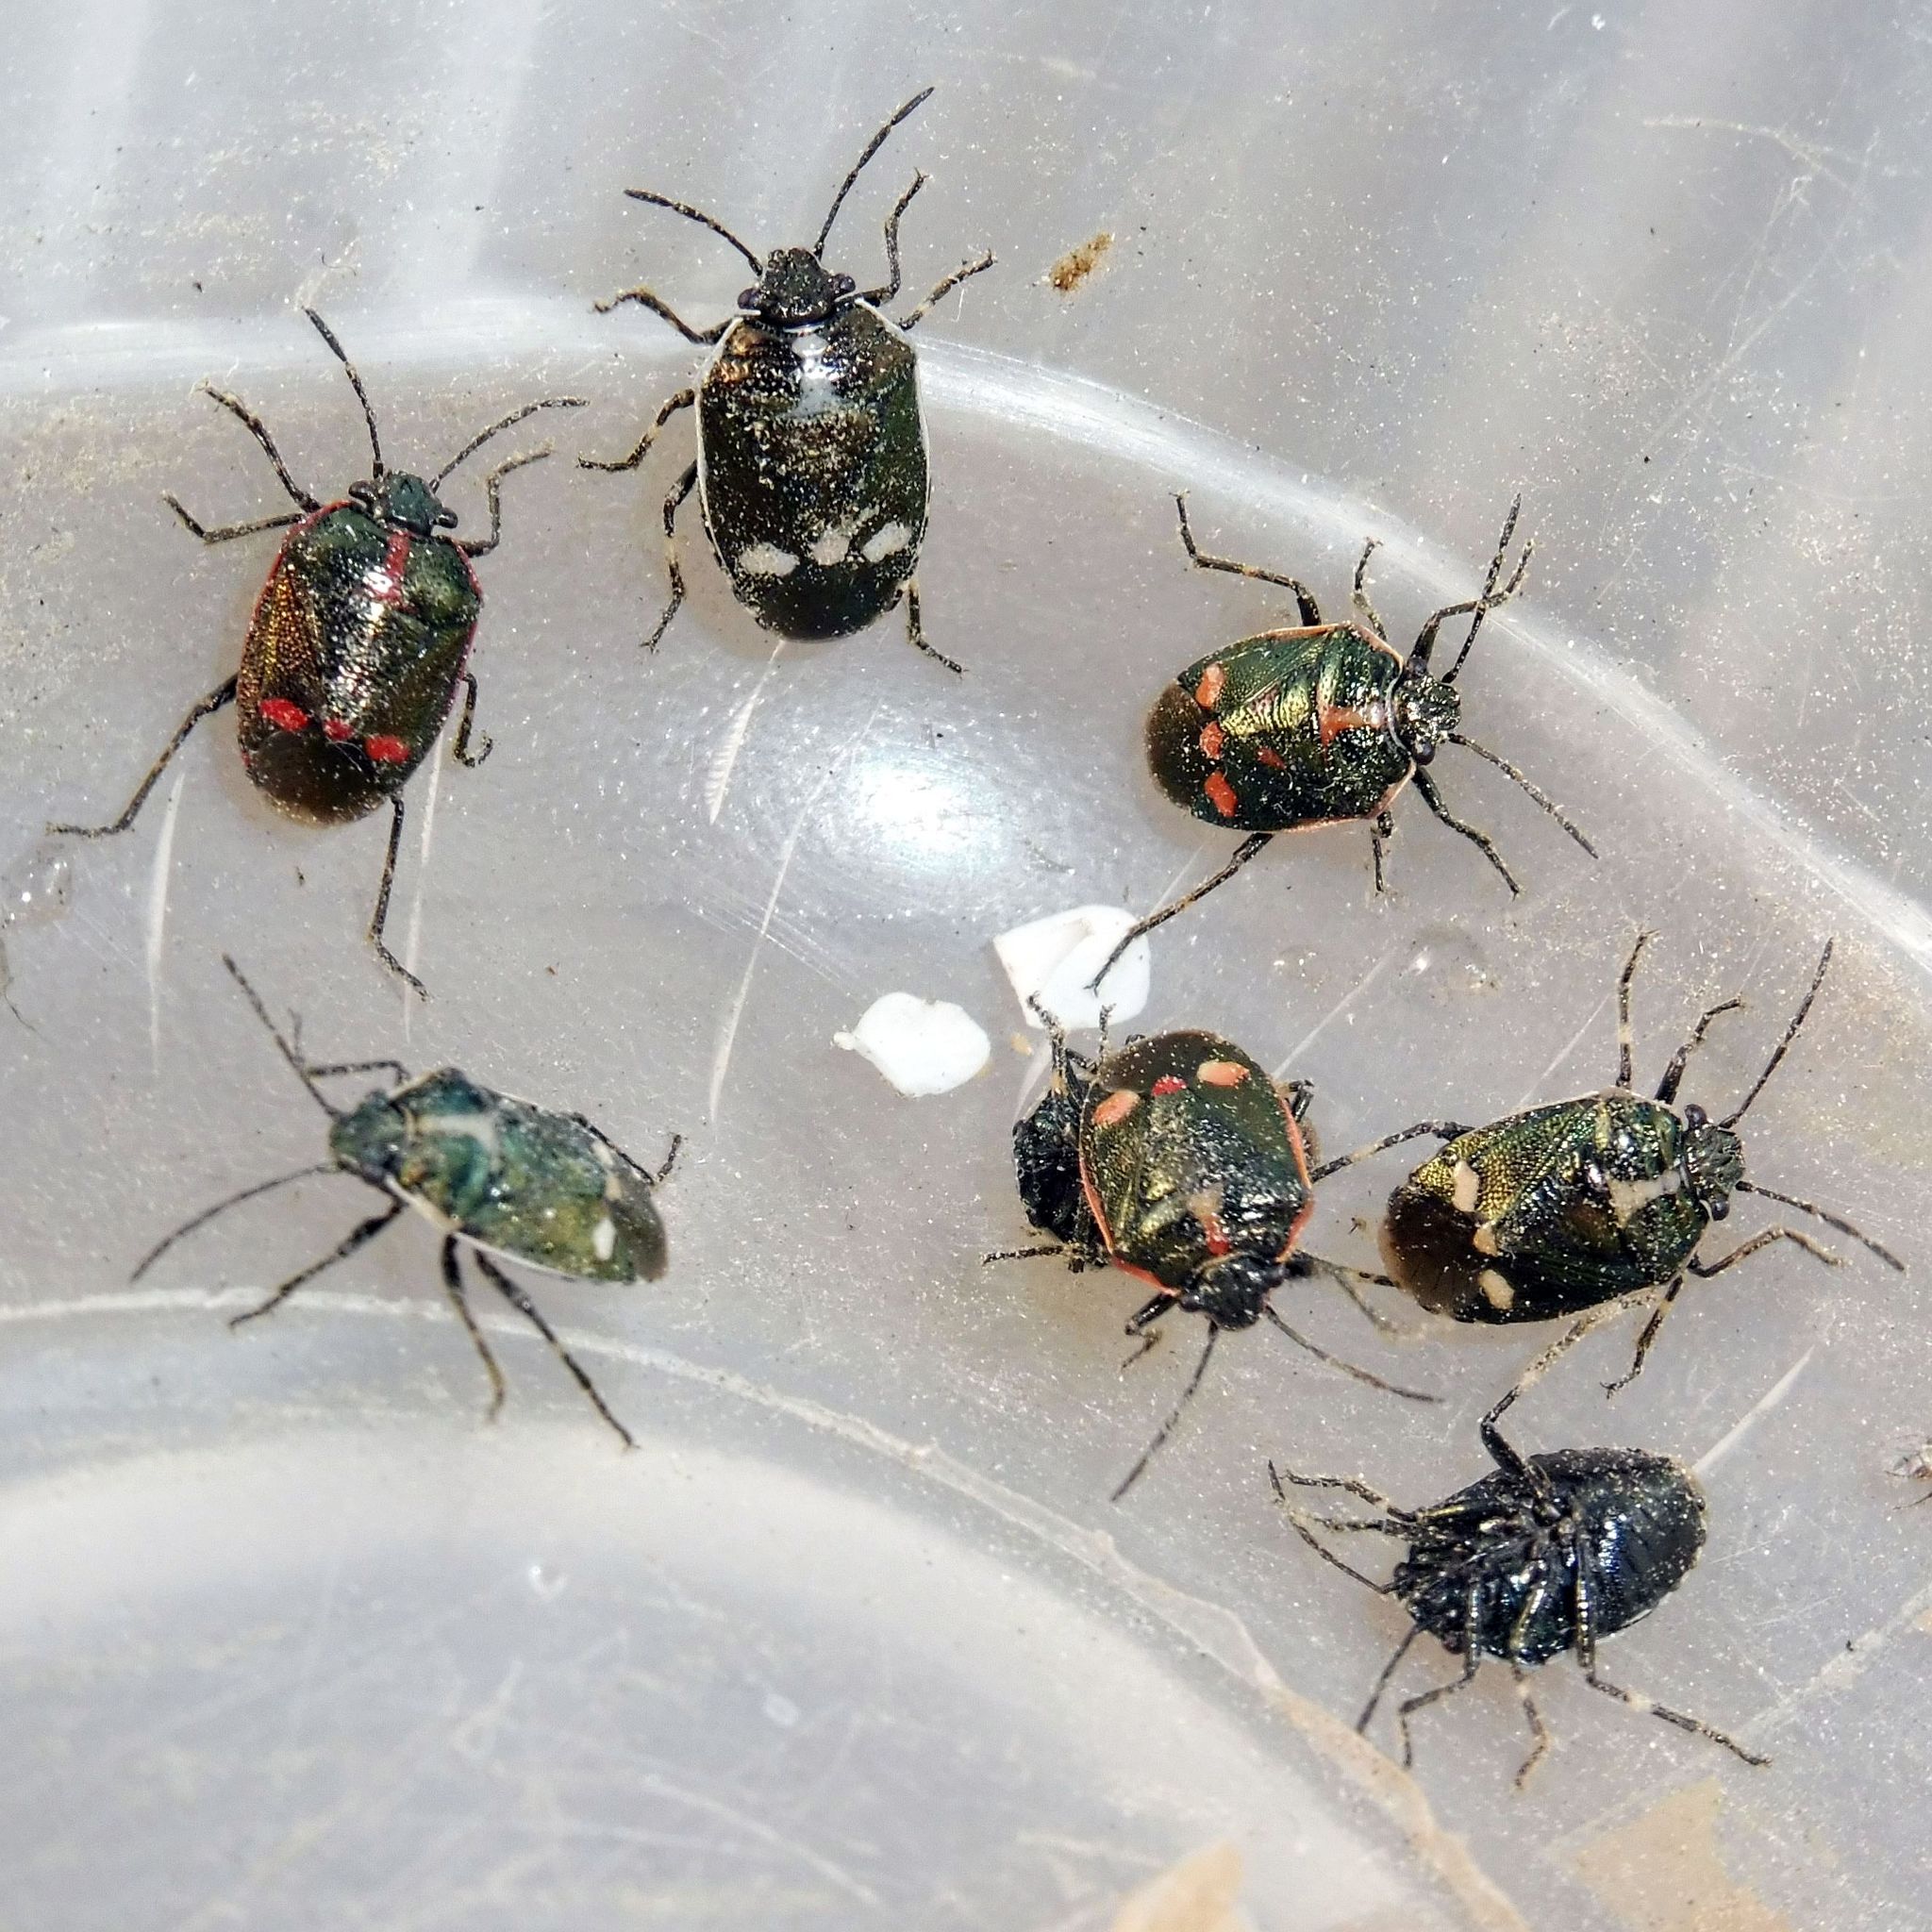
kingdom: Animalia
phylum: Arthropoda
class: Insecta
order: Hemiptera
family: Pentatomidae
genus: Eurydema
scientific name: Eurydema oleracea
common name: Cabbage bug
